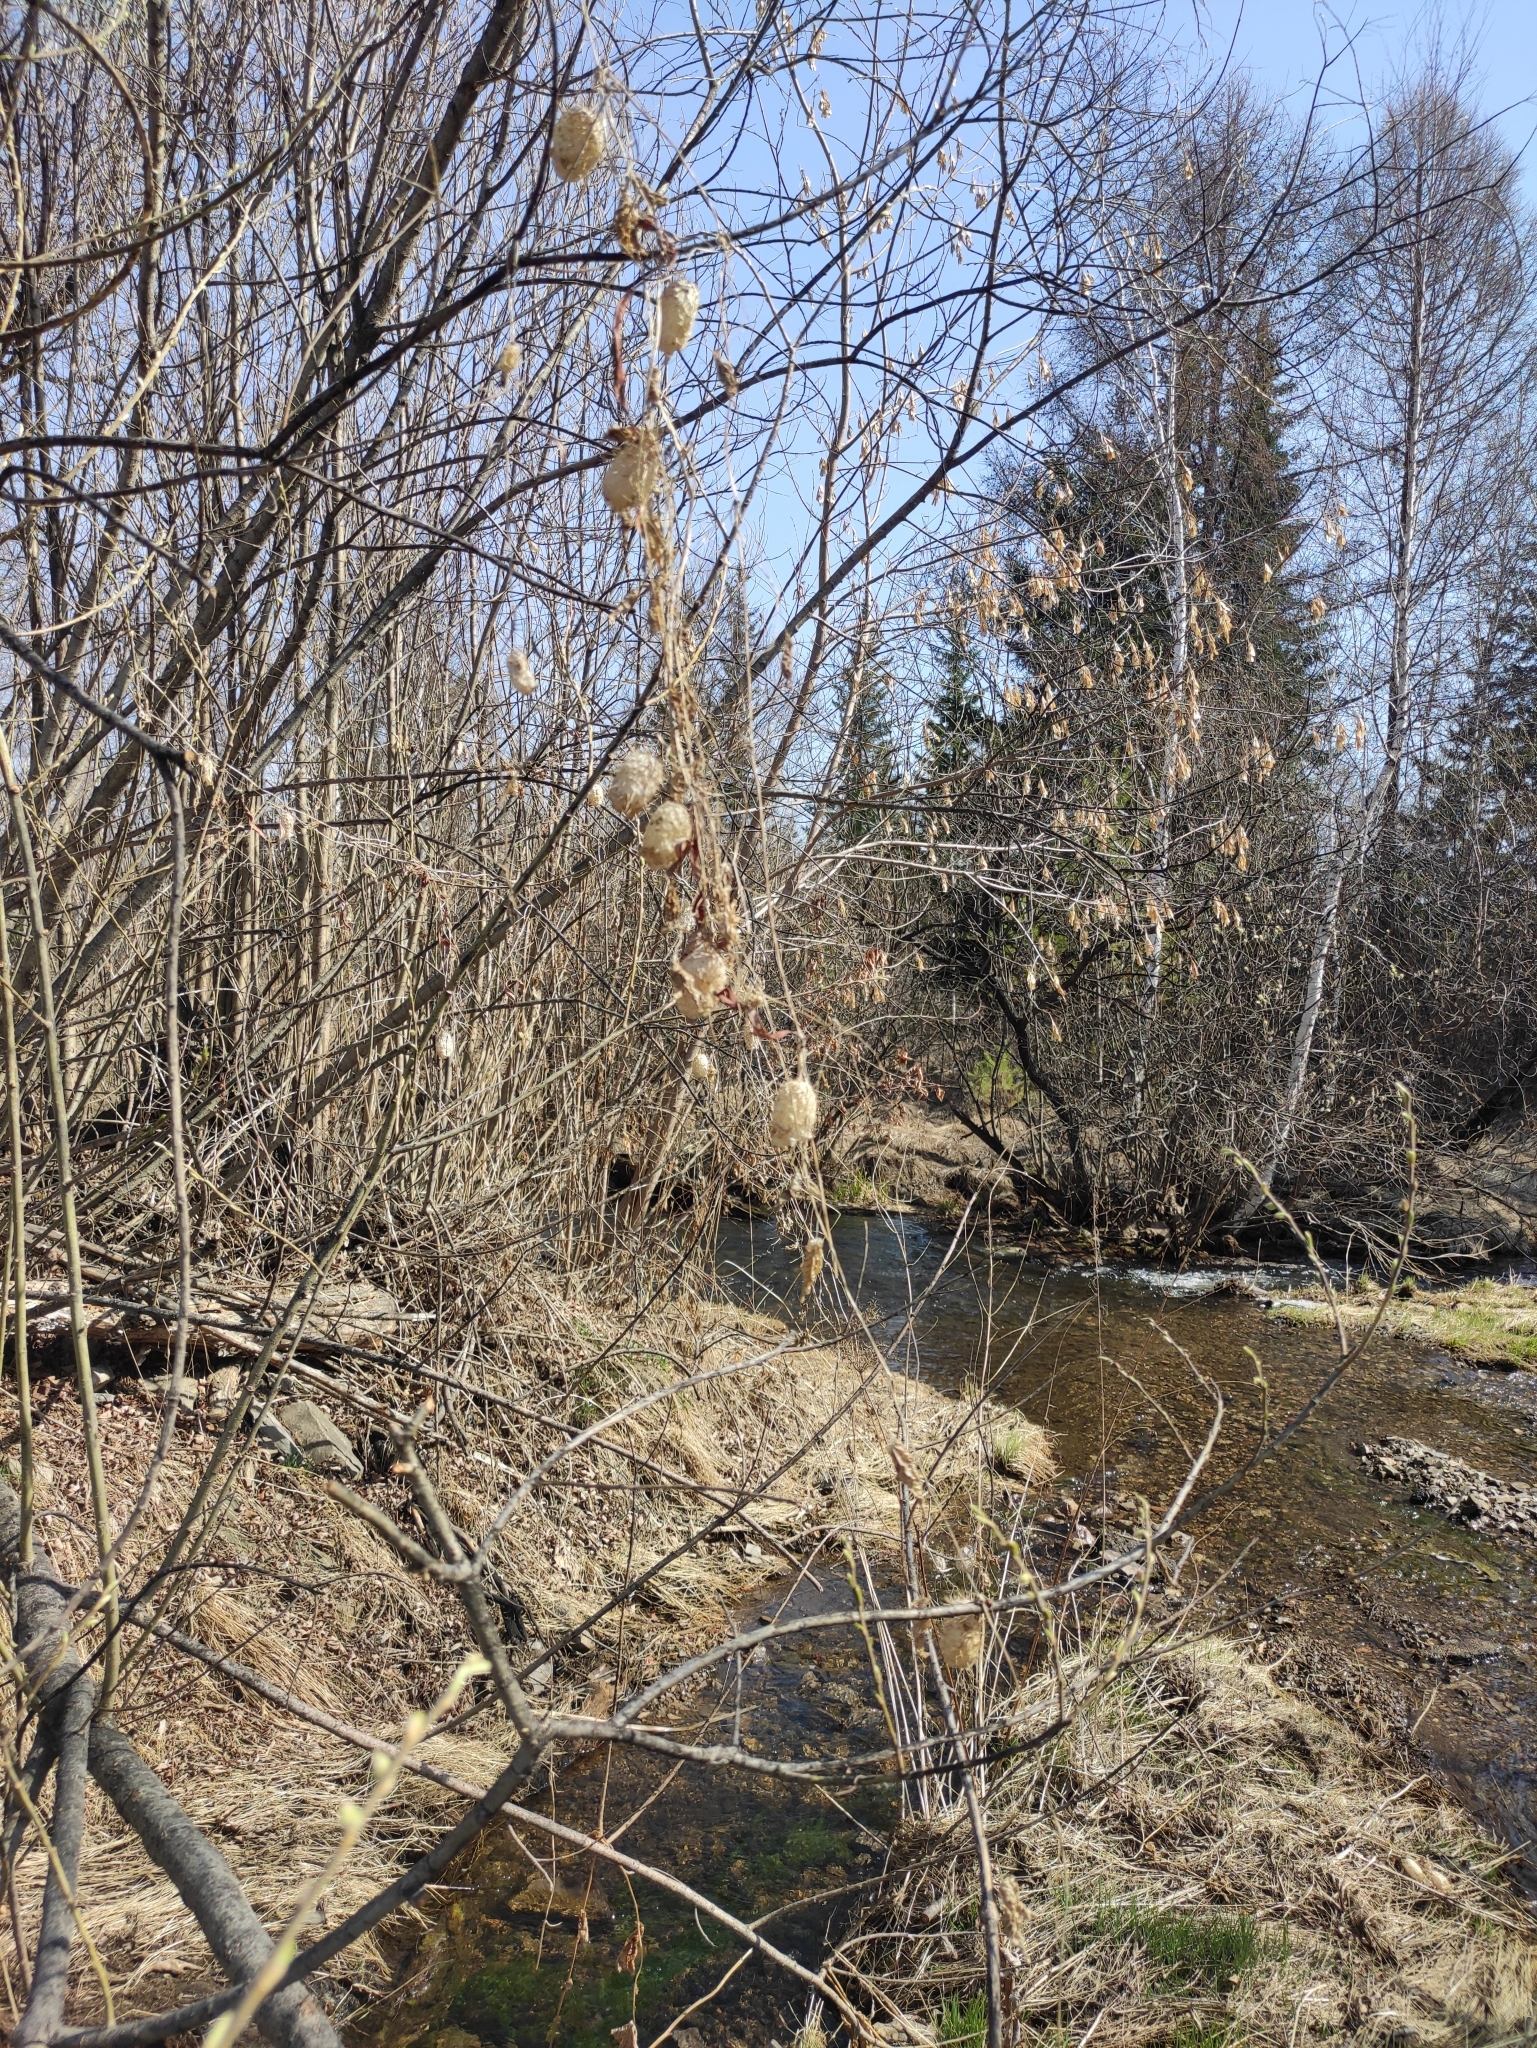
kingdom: Plantae
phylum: Tracheophyta
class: Magnoliopsida
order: Cucurbitales
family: Cucurbitaceae
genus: Echinocystis
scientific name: Echinocystis lobata
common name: Wild cucumber
